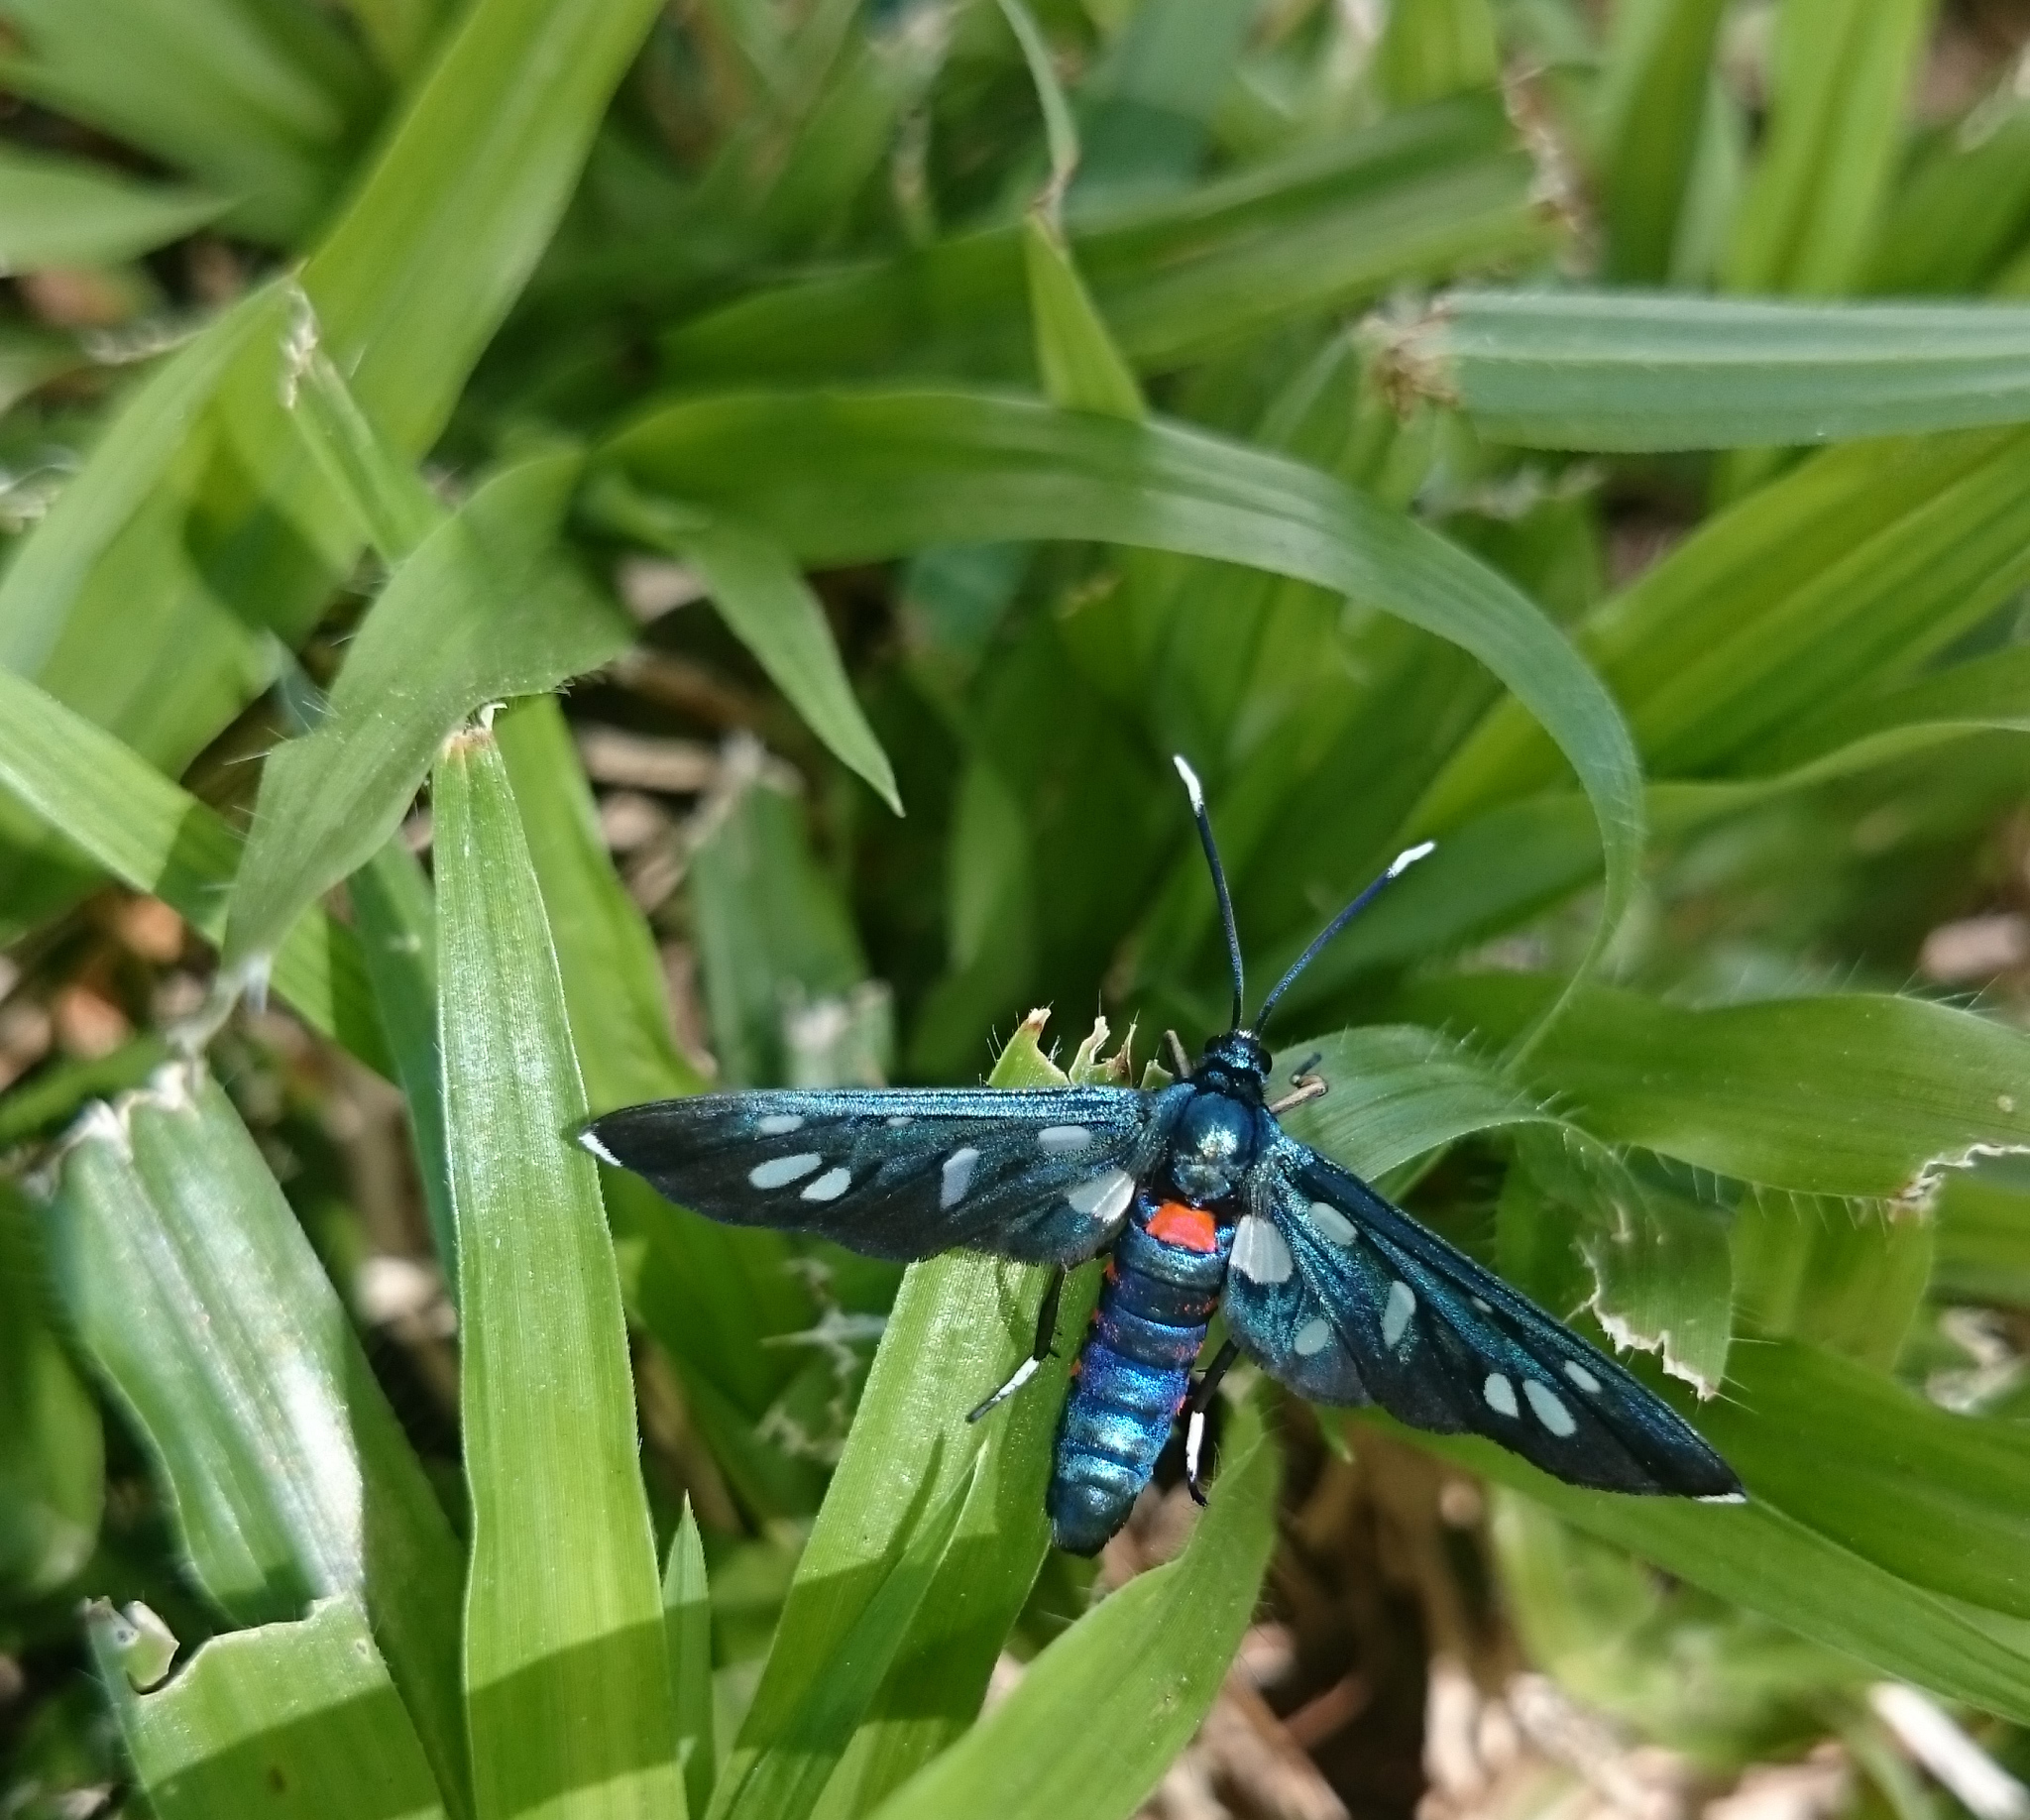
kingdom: Animalia
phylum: Arthropoda
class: Insecta
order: Lepidoptera
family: Erebidae
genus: Amata
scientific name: Amata kuhlweini
